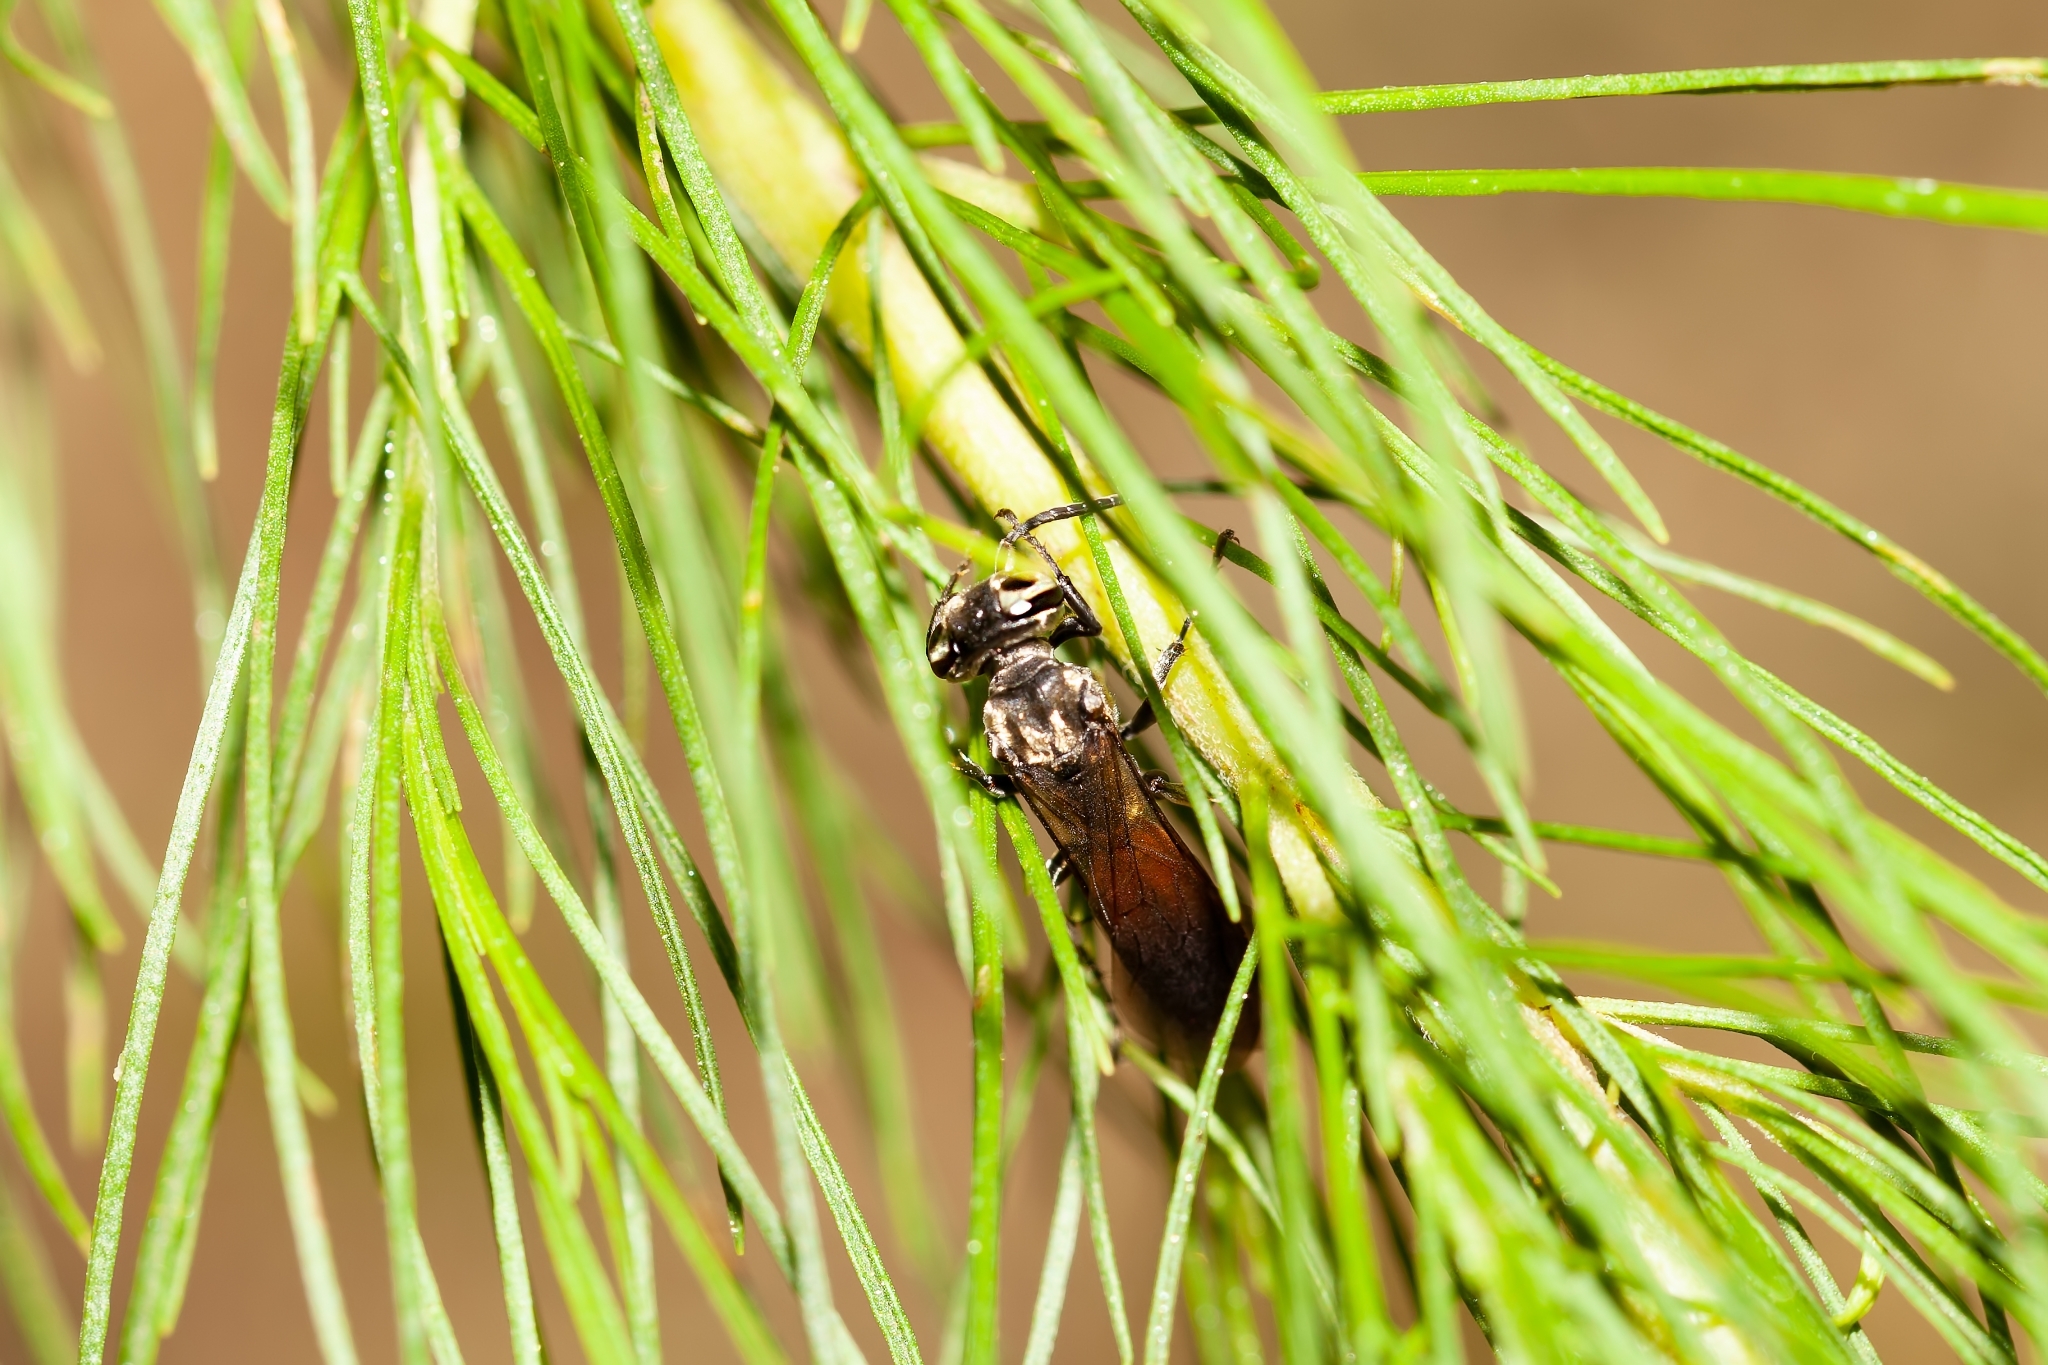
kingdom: Animalia
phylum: Arthropoda
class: Insecta
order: Hymenoptera
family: Crabronidae
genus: Larra
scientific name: Larra bicolor
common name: Wasp
